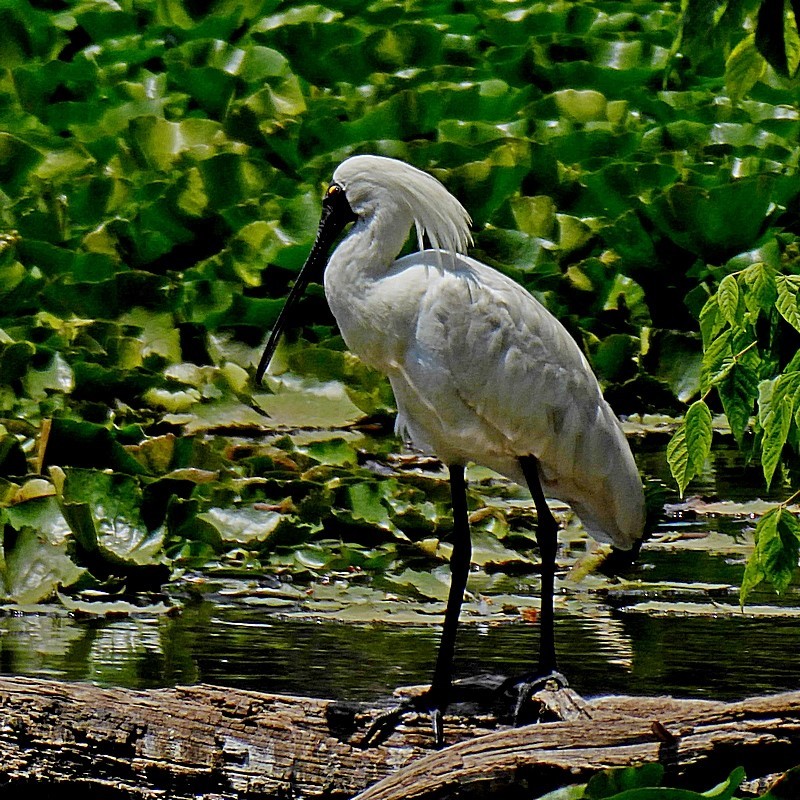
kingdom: Animalia
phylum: Chordata
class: Aves
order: Pelecaniformes
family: Threskiornithidae
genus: Platalea
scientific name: Platalea regia
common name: Royal spoonbill
